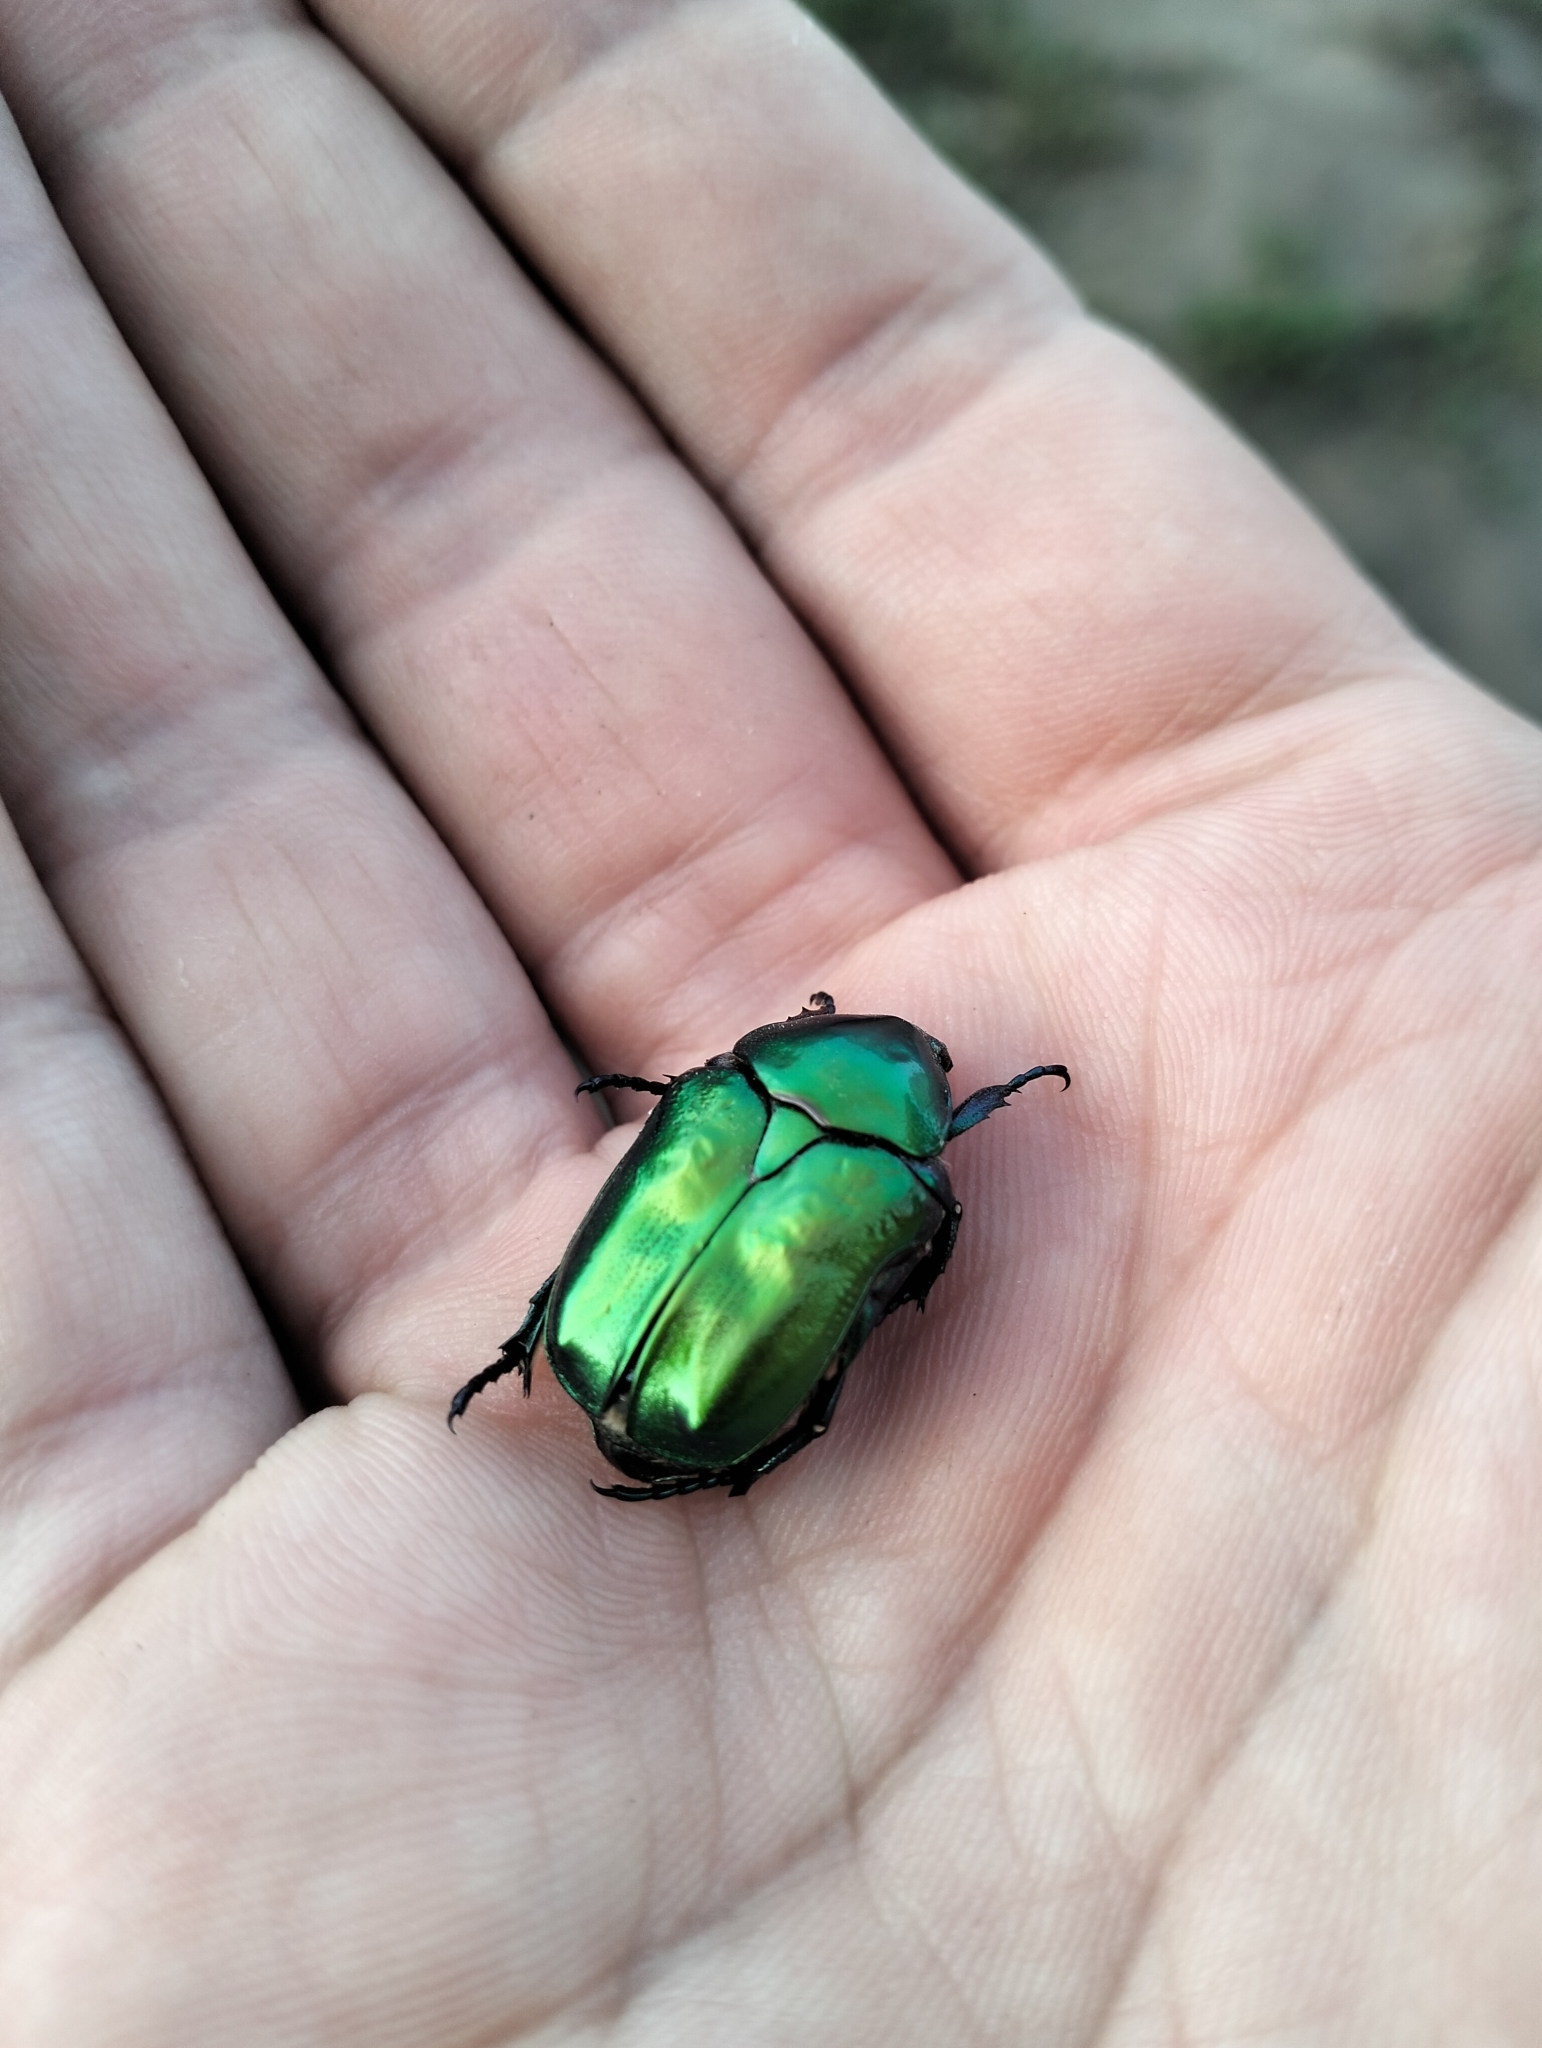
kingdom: Animalia
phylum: Arthropoda
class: Insecta
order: Coleoptera
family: Scarabaeidae
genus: Protaetia
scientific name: Protaetia affinis
